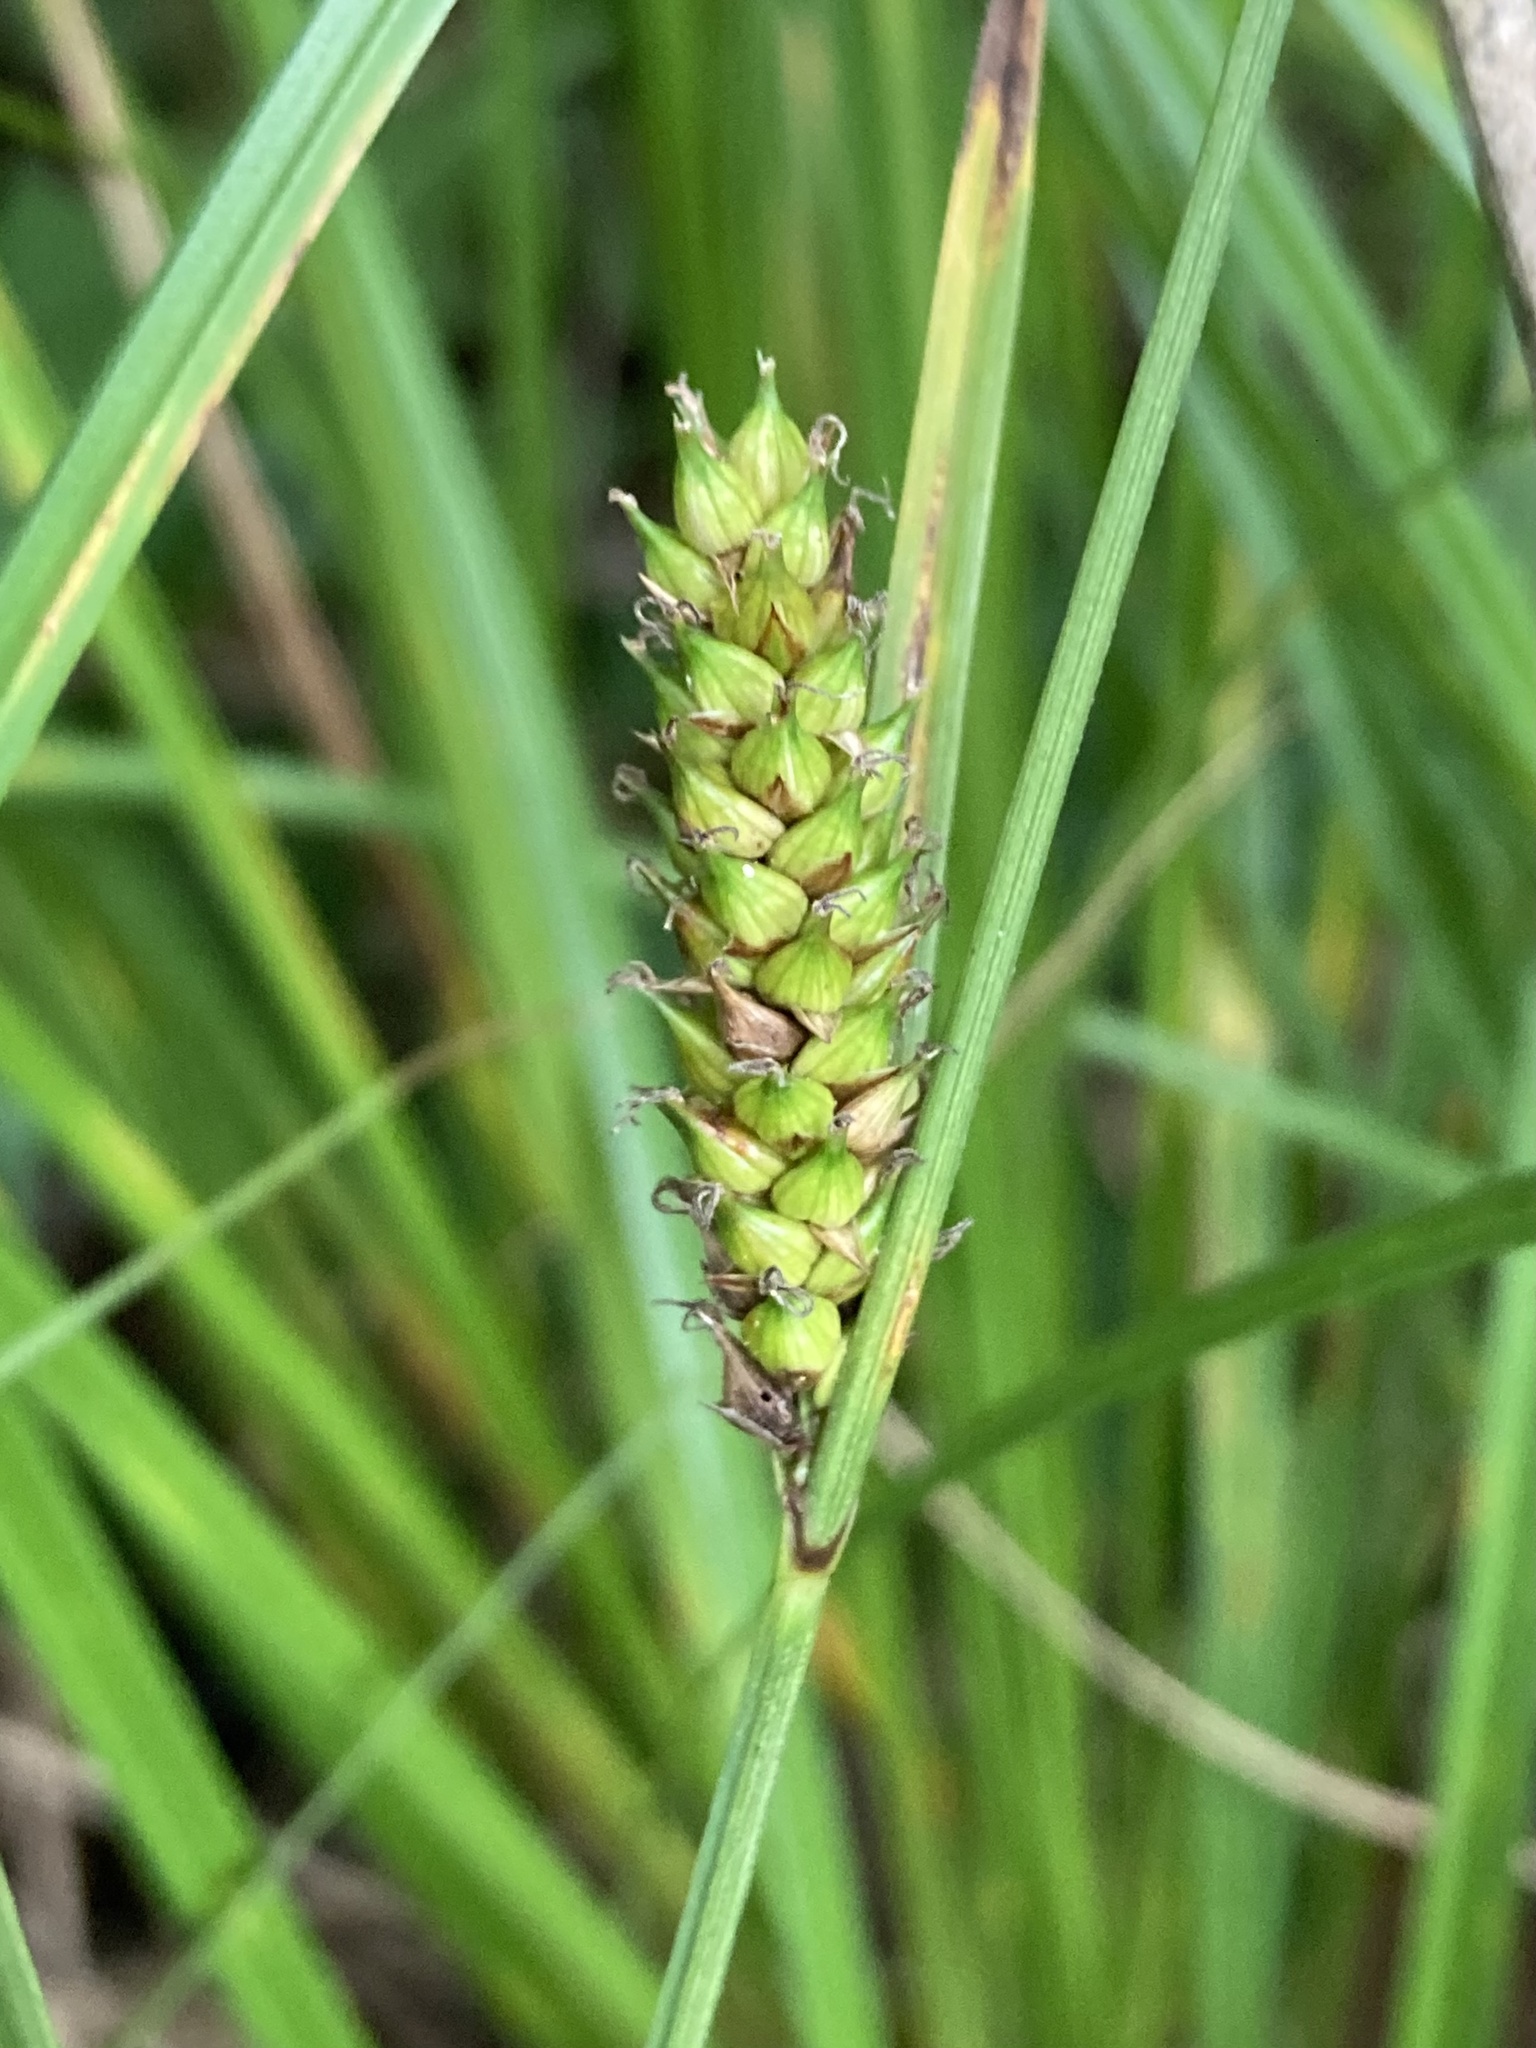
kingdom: Plantae
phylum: Tracheophyta
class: Liliopsida
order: Poales
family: Cyperaceae
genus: Carex
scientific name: Carex striata
